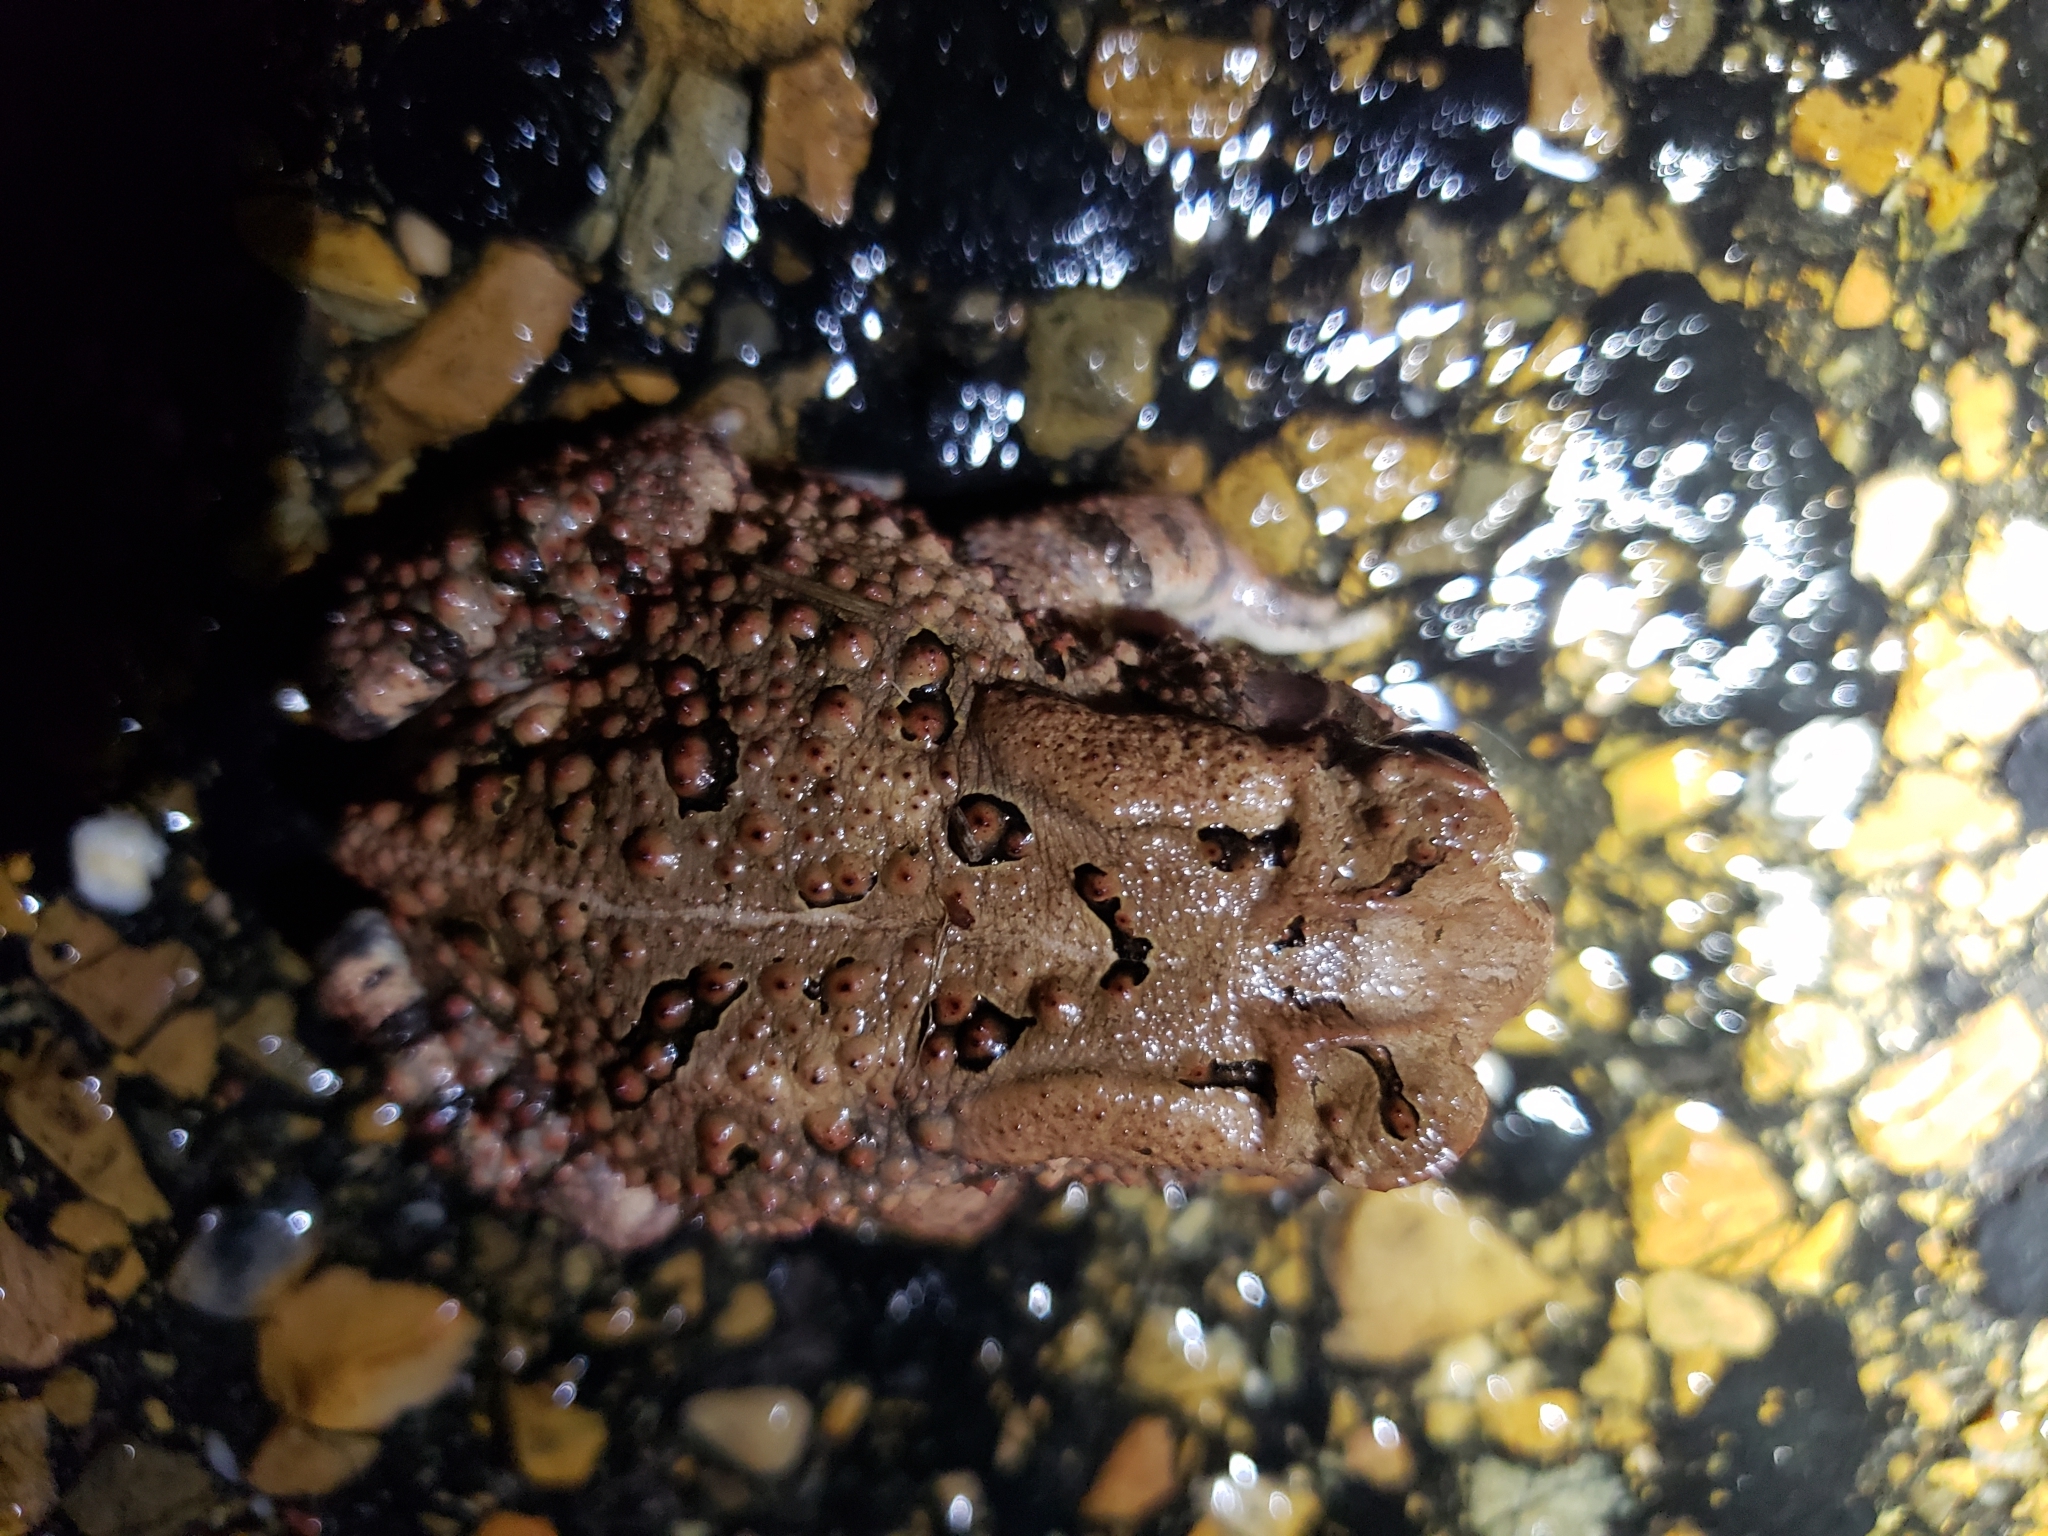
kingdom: Animalia
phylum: Chordata
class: Amphibia
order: Anura
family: Bufonidae
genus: Anaxyrus
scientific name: Anaxyrus fowleri
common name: Fowler's toad
